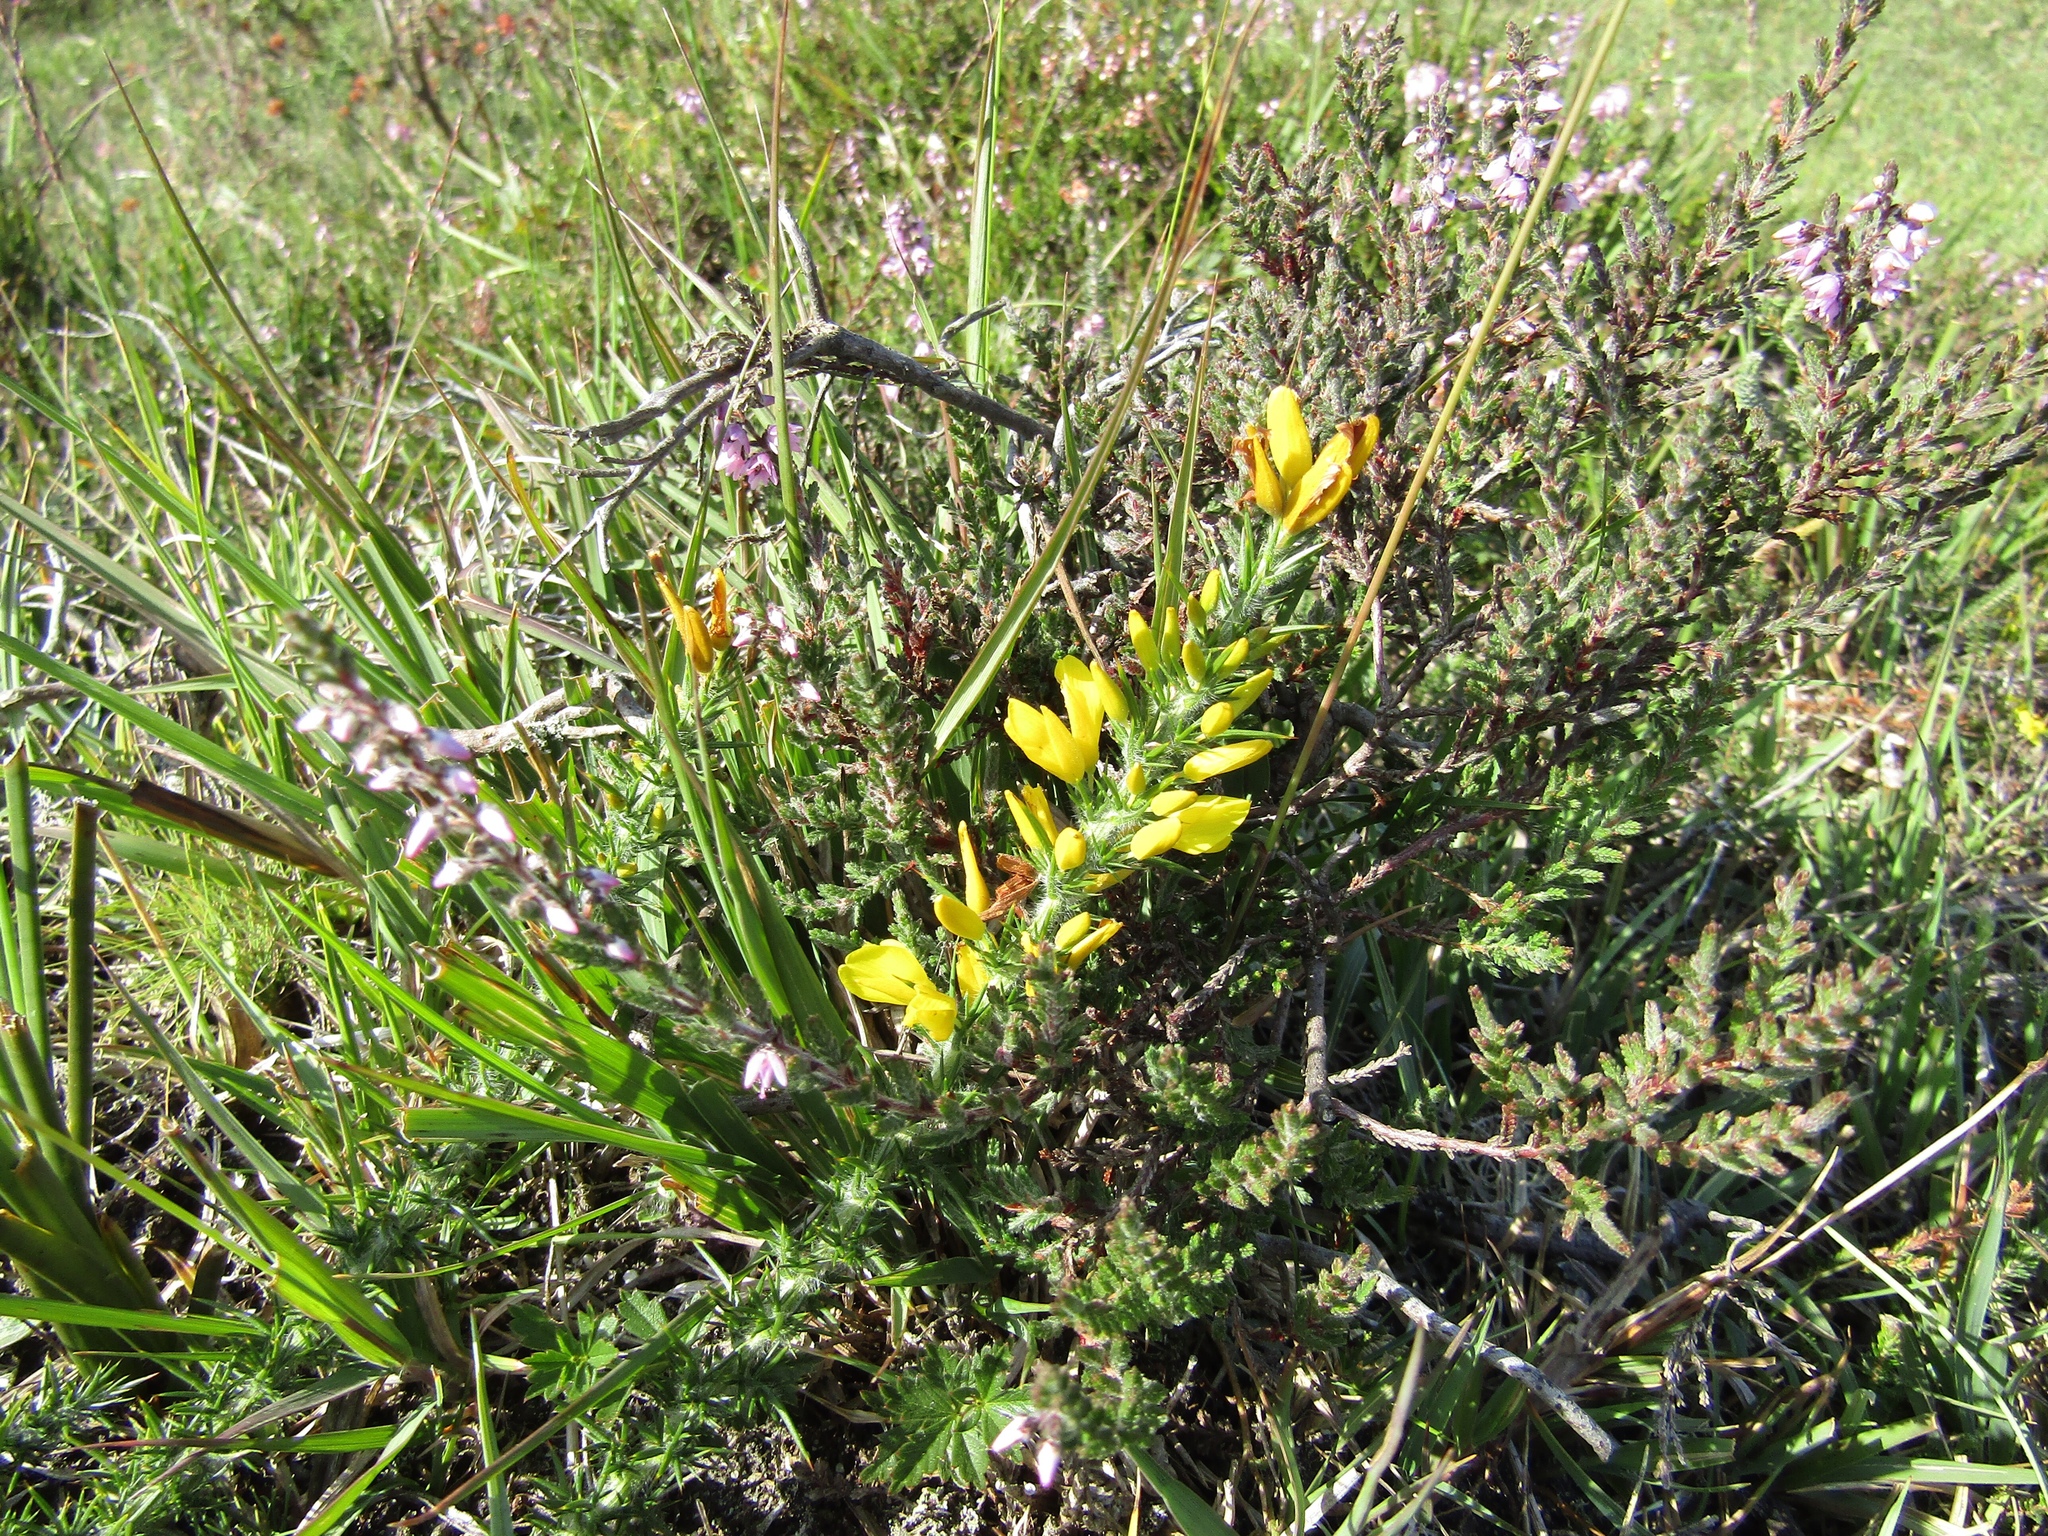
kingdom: Plantae
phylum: Tracheophyta
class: Magnoliopsida
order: Fabales
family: Fabaceae
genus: Ulex
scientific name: Ulex minor
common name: Dwarf gorse
